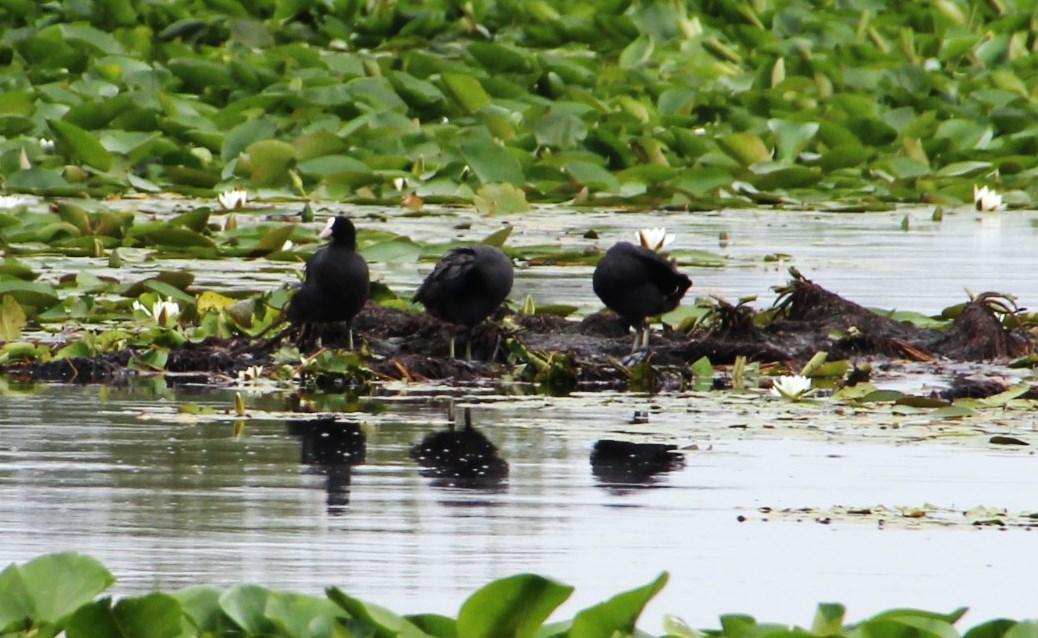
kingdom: Animalia
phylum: Chordata
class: Aves
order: Gruiformes
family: Rallidae
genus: Fulica
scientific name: Fulica atra
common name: Eurasian coot
